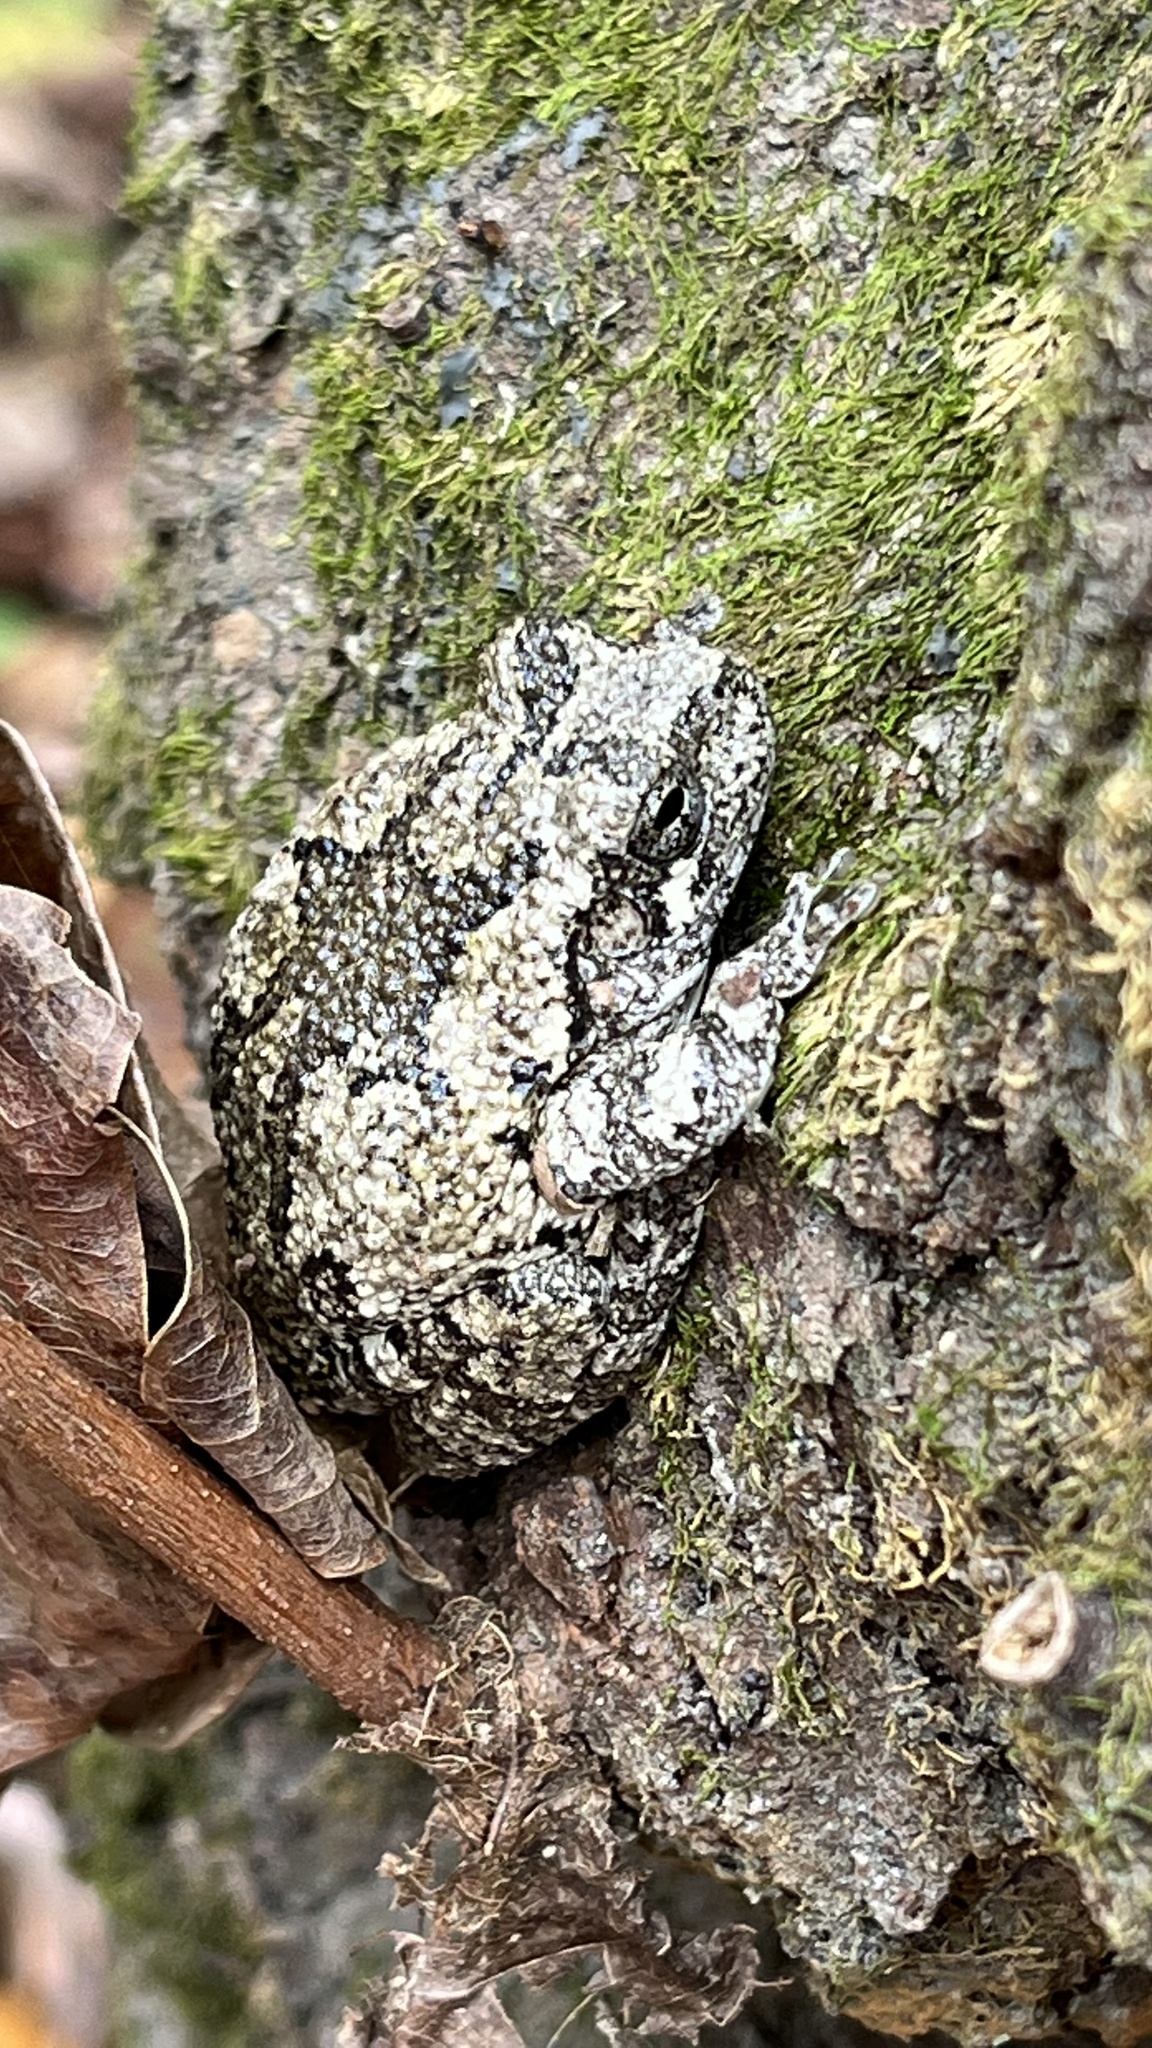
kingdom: Animalia
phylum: Chordata
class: Amphibia
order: Anura
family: Hylidae
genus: Dryophytes
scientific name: Dryophytes chrysoscelis
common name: Cope's gray treefrog
